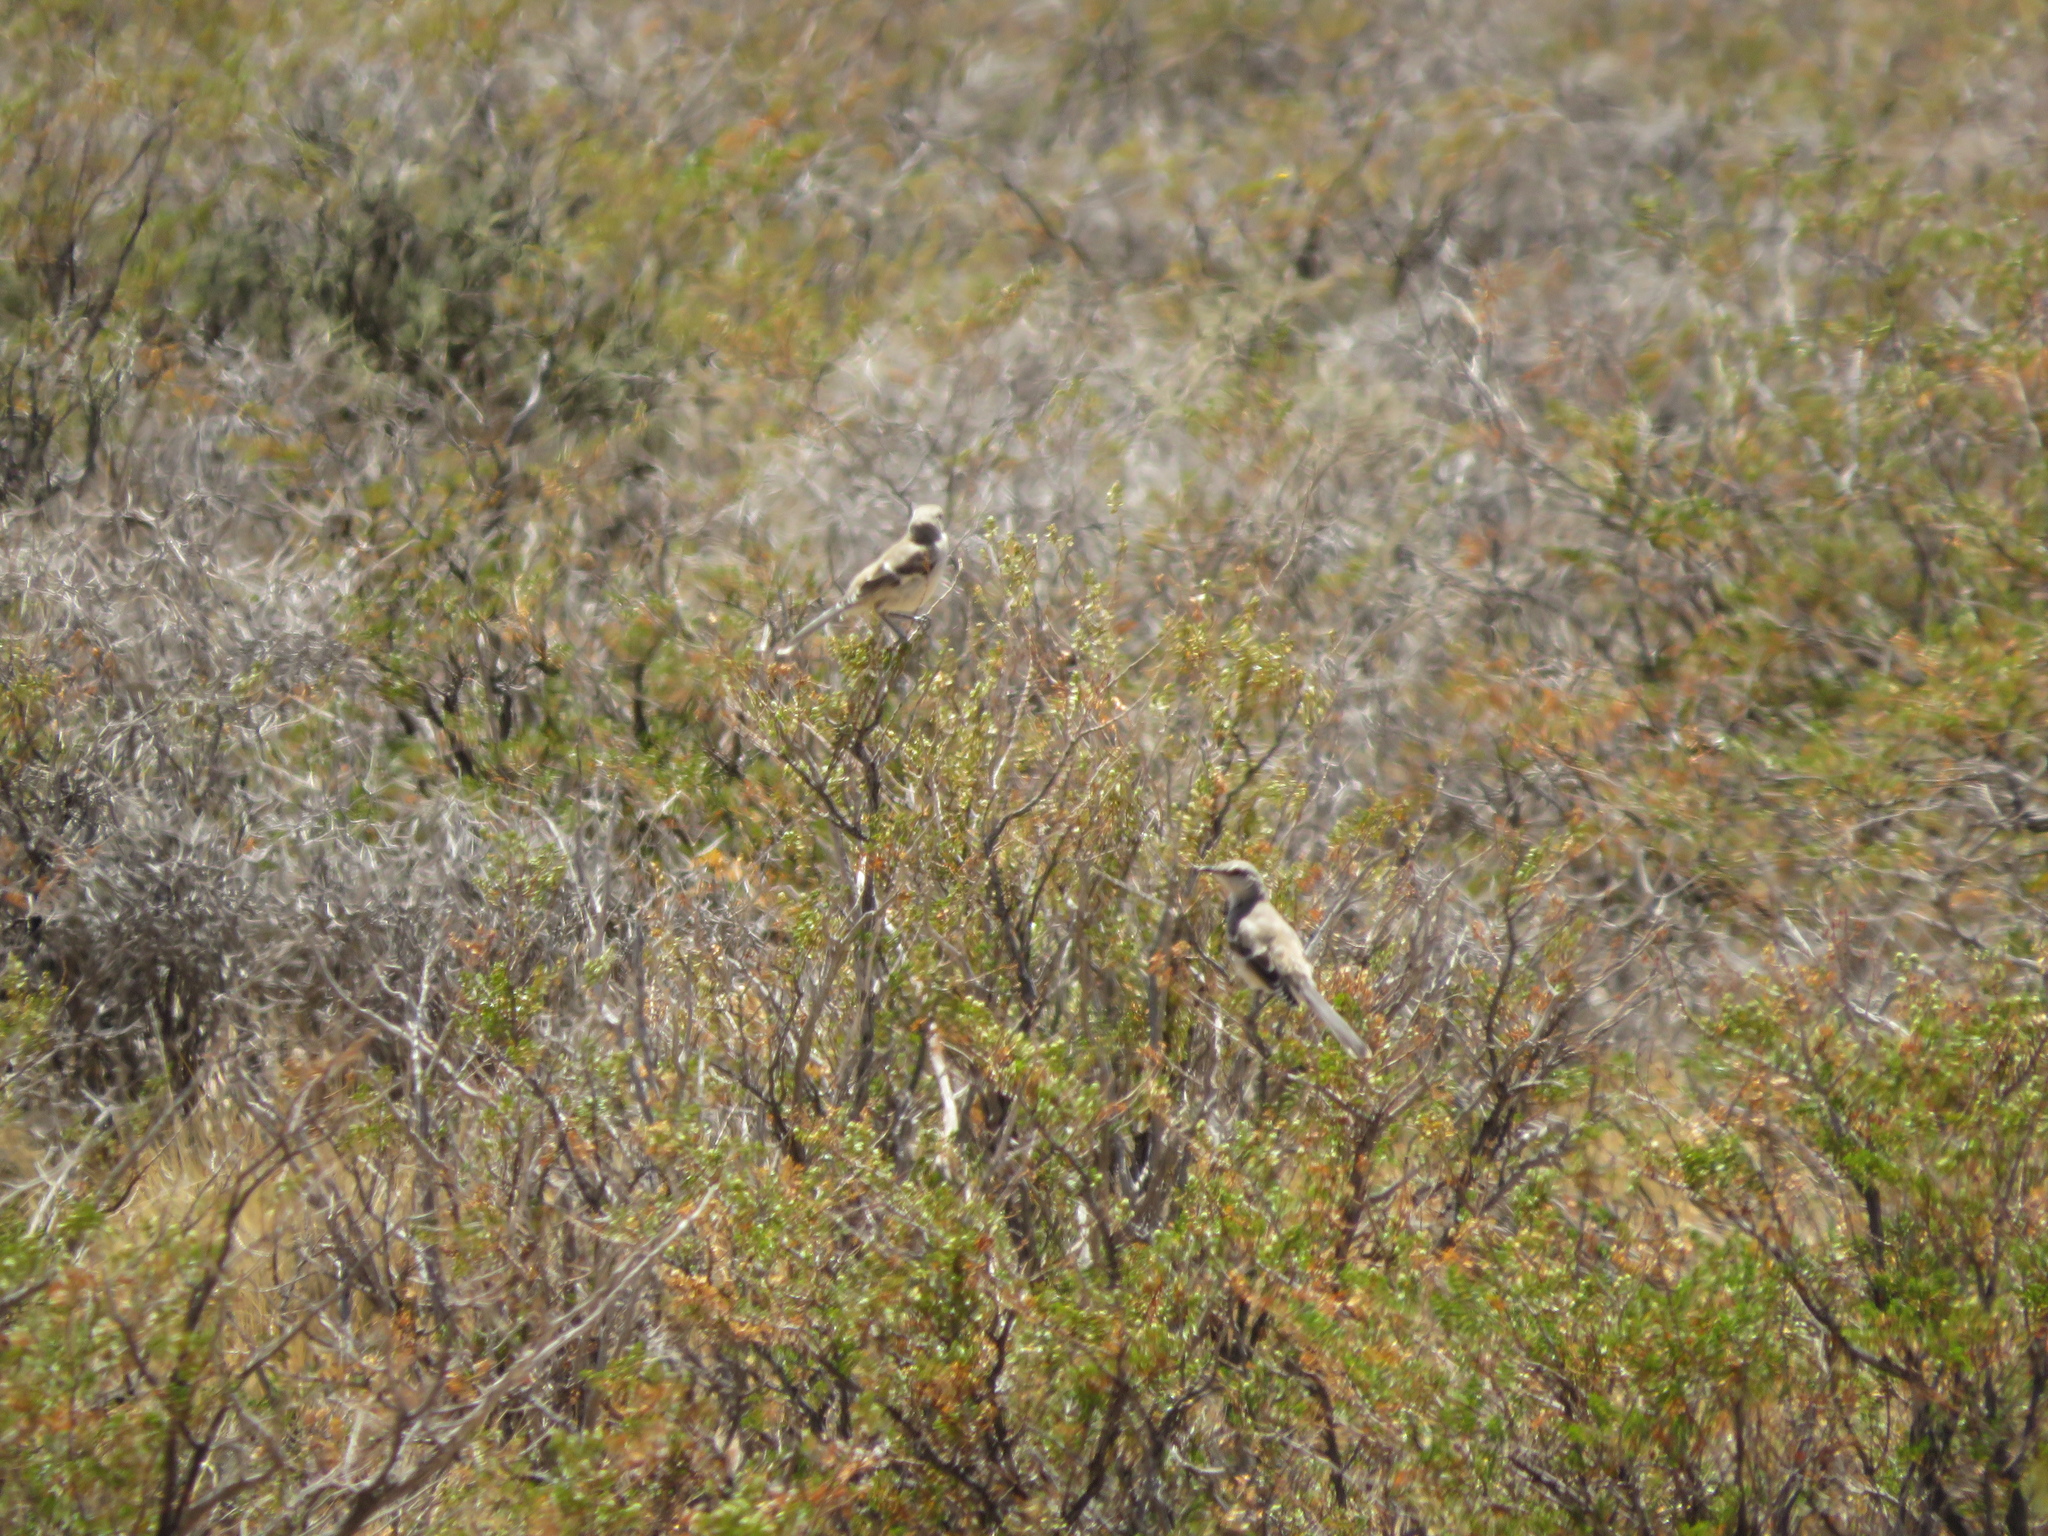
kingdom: Animalia
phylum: Chordata
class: Aves
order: Passeriformes
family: Mimidae
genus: Mimus
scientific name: Mimus patagonicus
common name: Patagonian mockingbird
